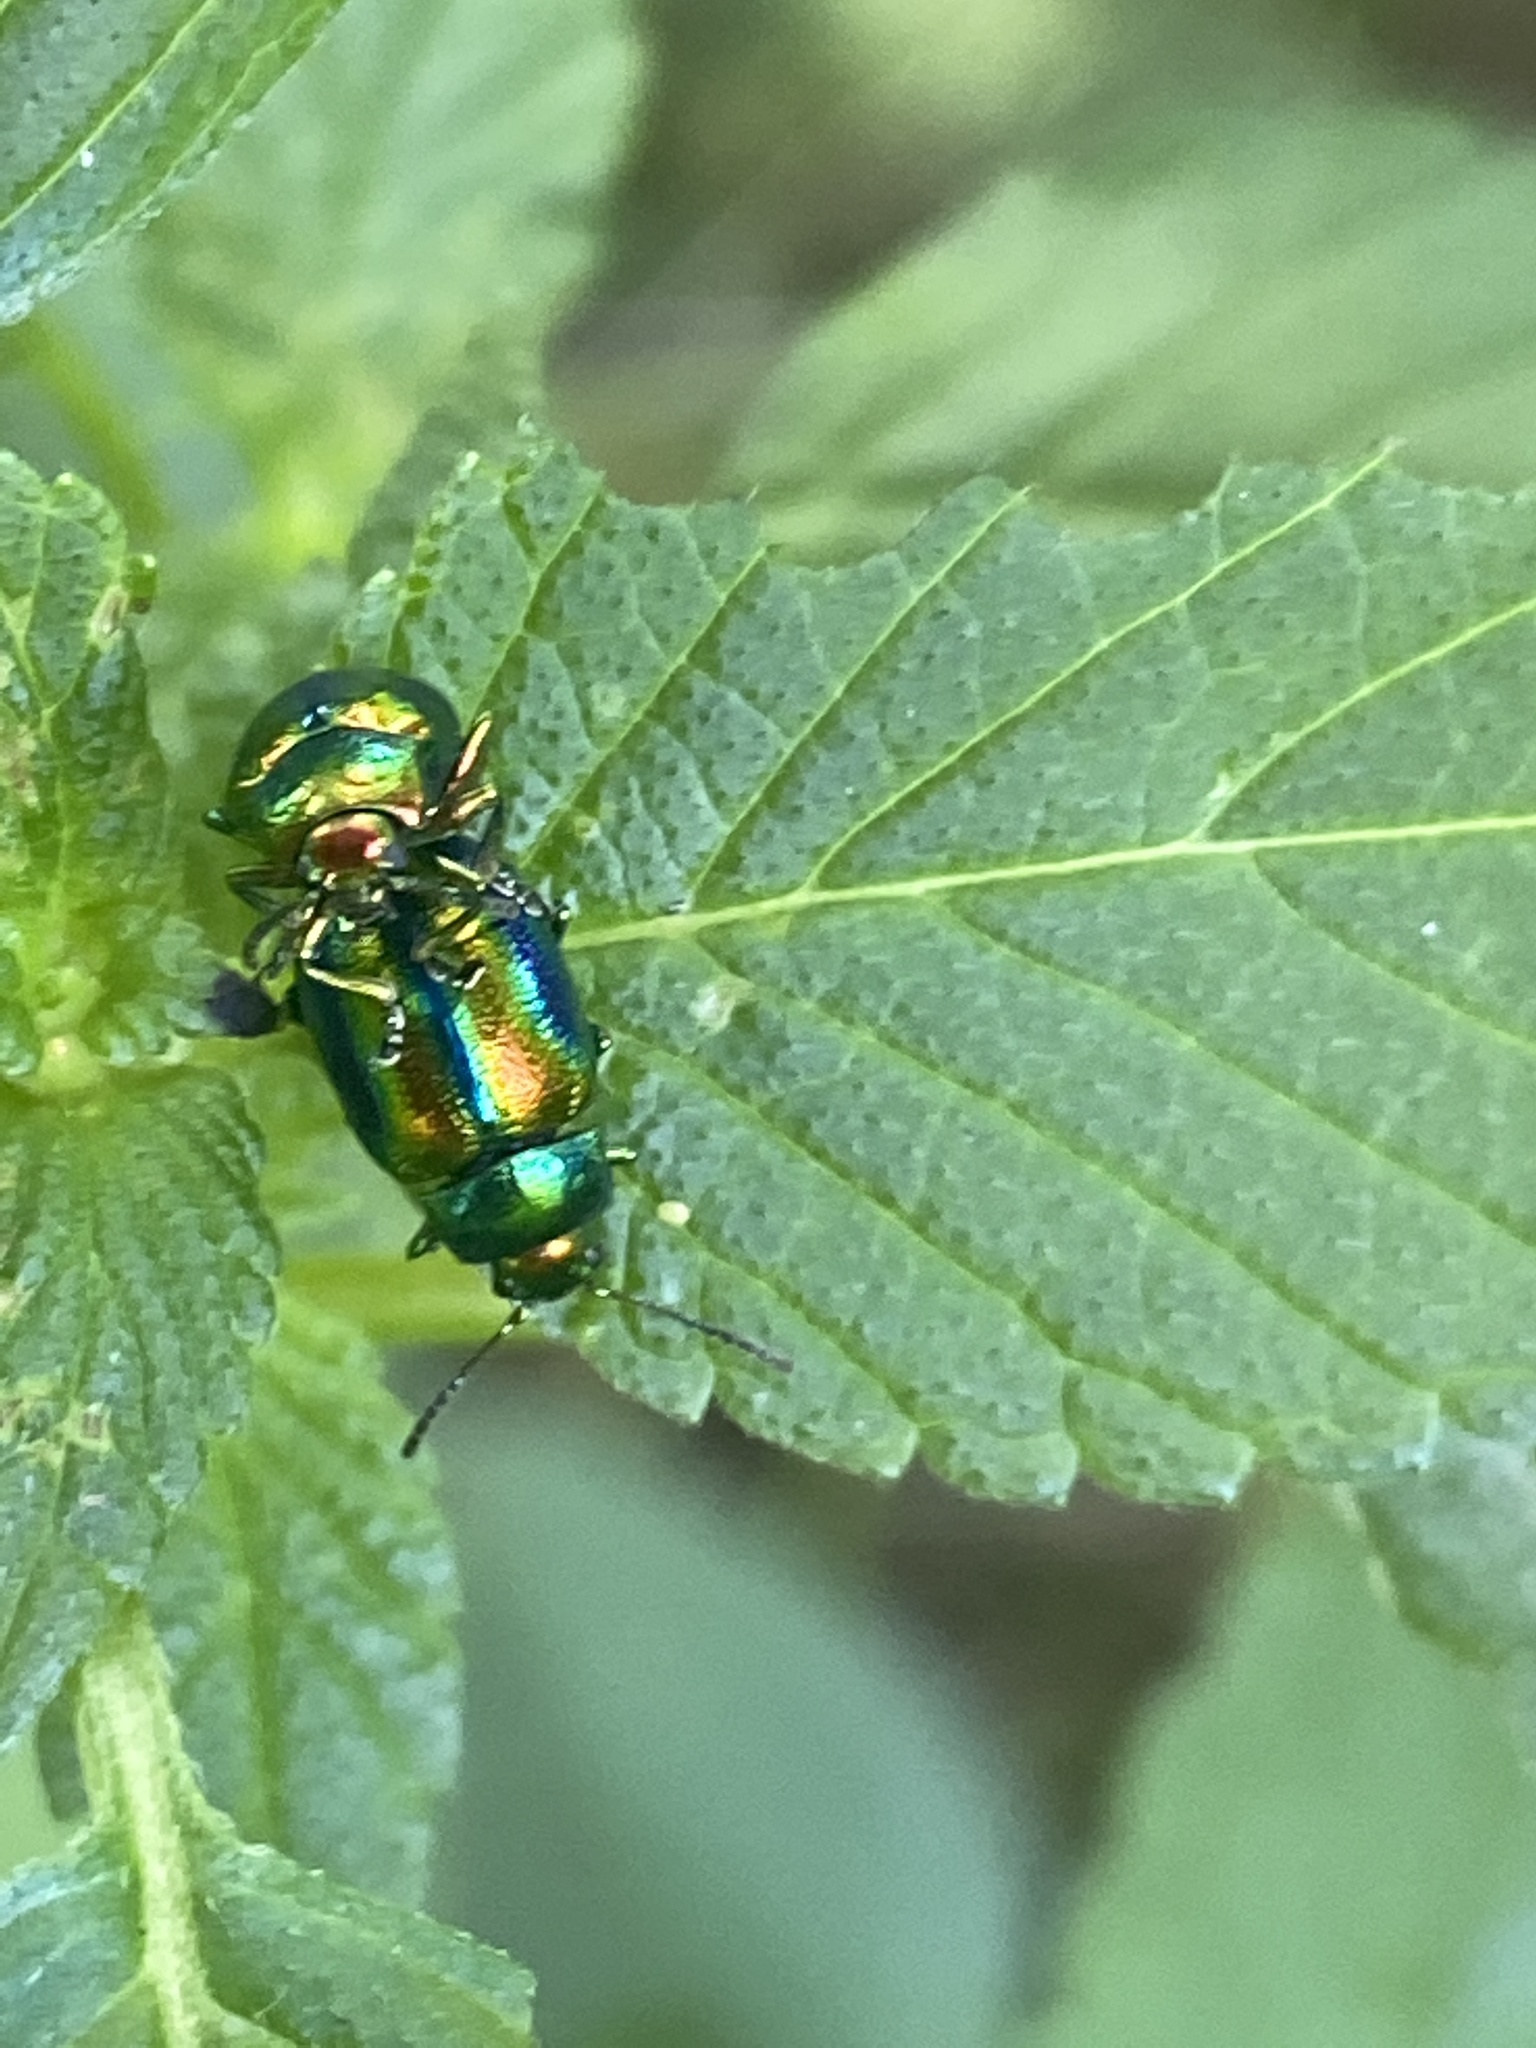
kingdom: Animalia
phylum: Arthropoda
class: Insecta
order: Coleoptera
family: Chrysomelidae
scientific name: Chrysomelidae
